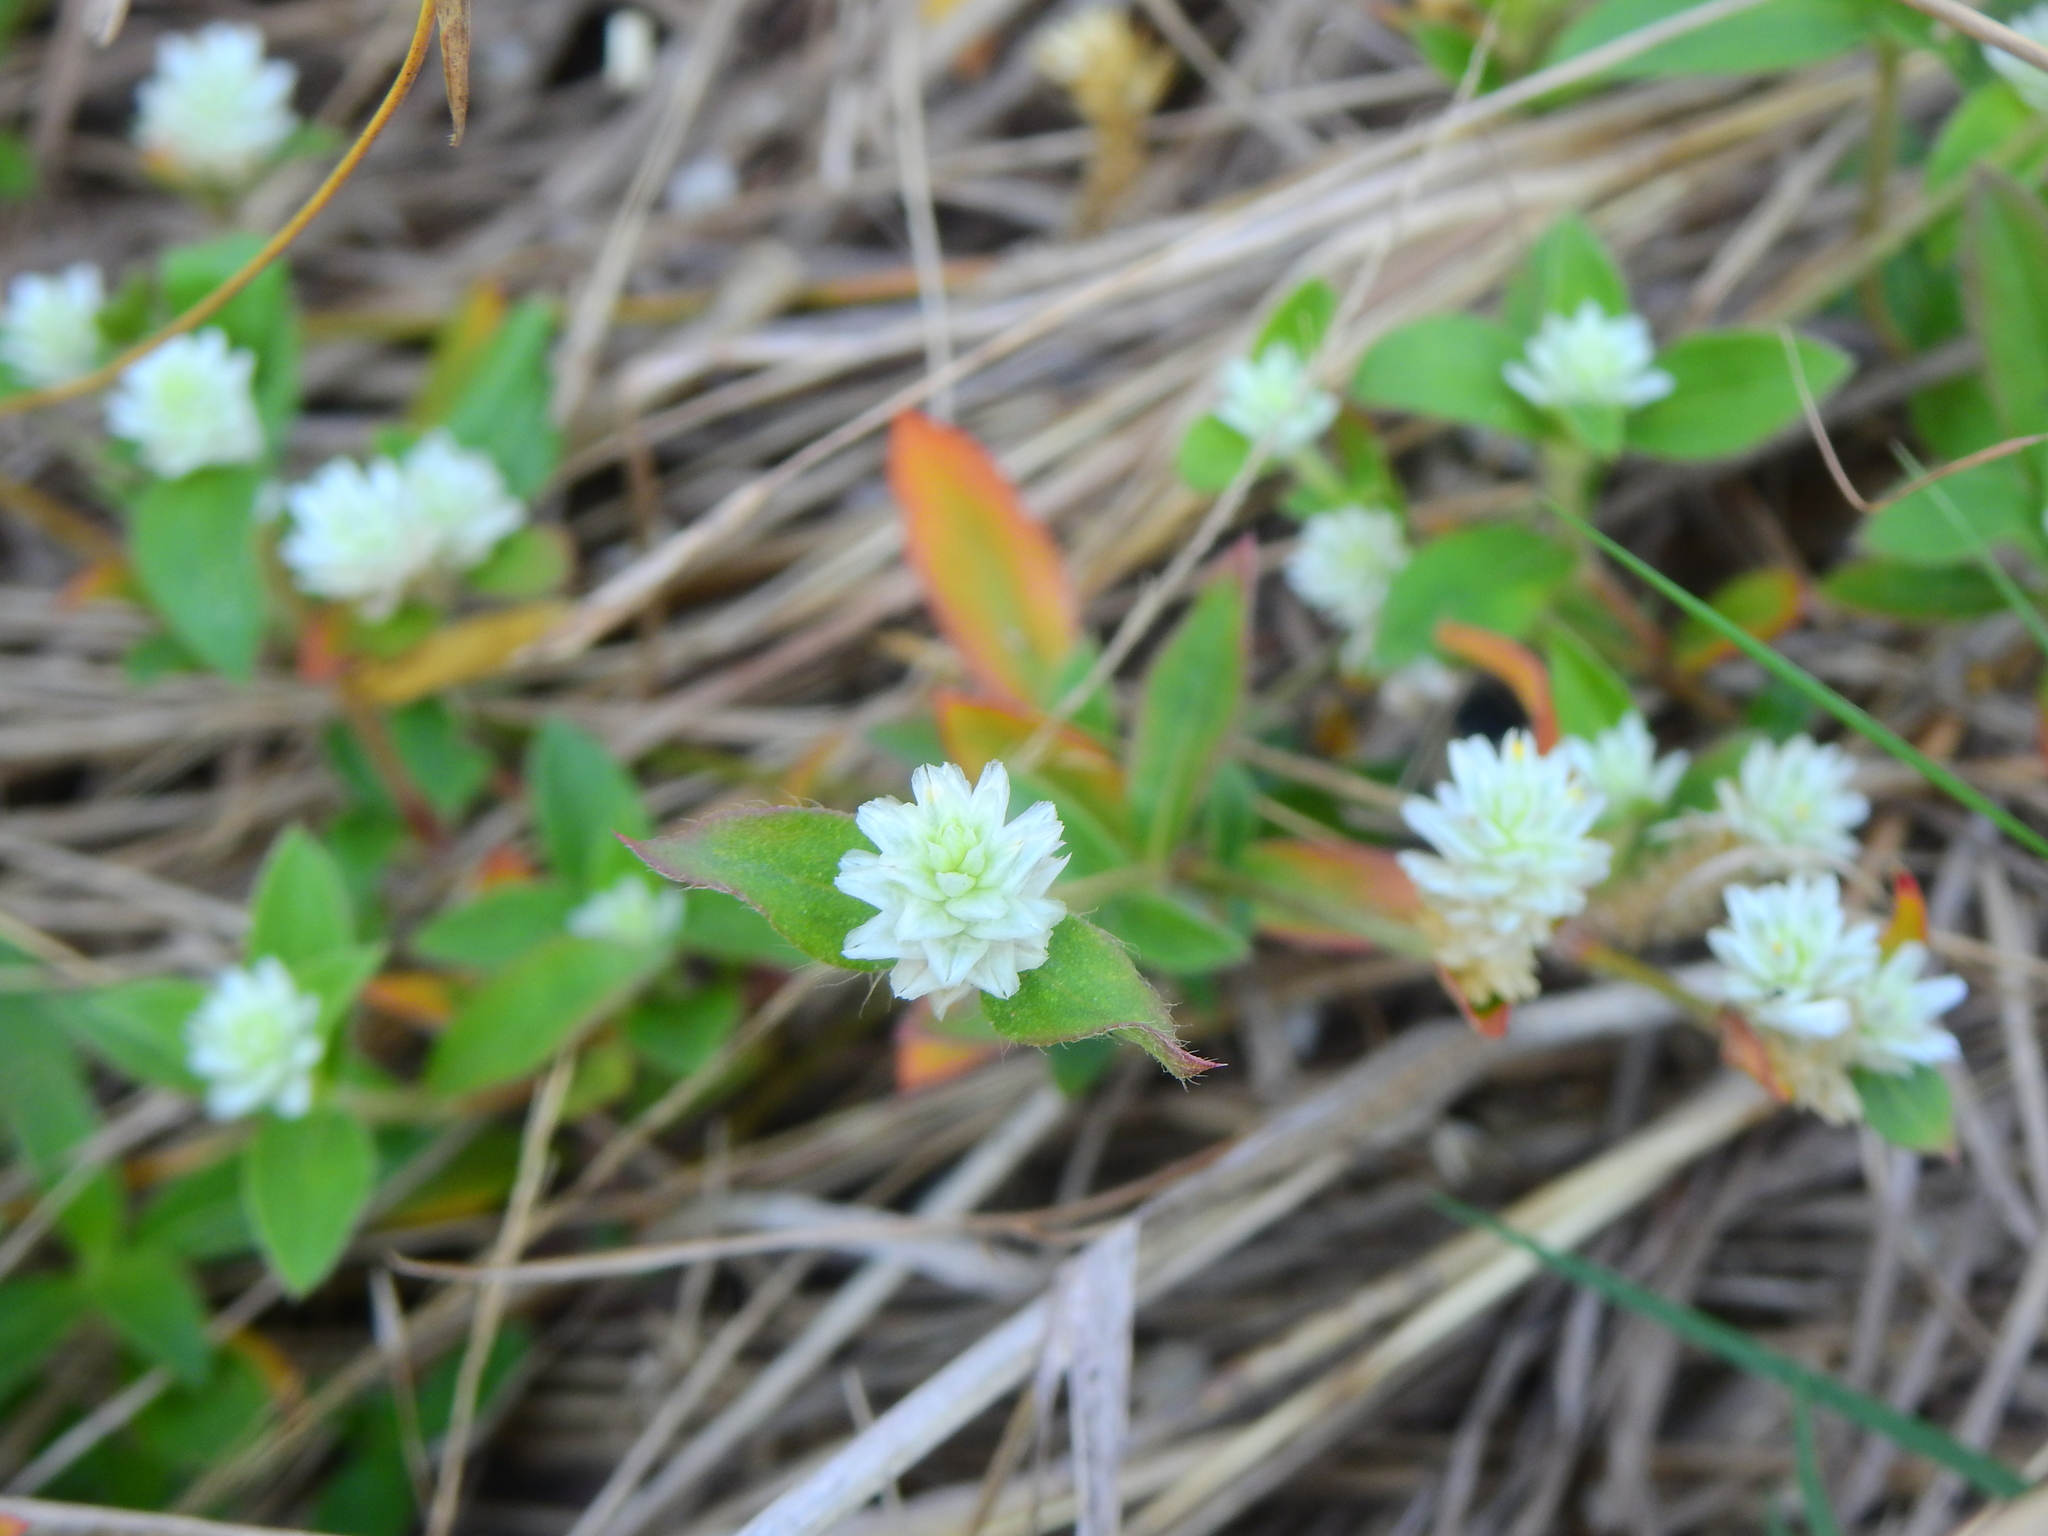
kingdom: Plantae
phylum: Tracheophyta
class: Magnoliopsida
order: Caryophyllales
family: Amaranthaceae
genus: Gomphrena
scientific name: Gomphrena serrata
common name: Arrasa con todo
